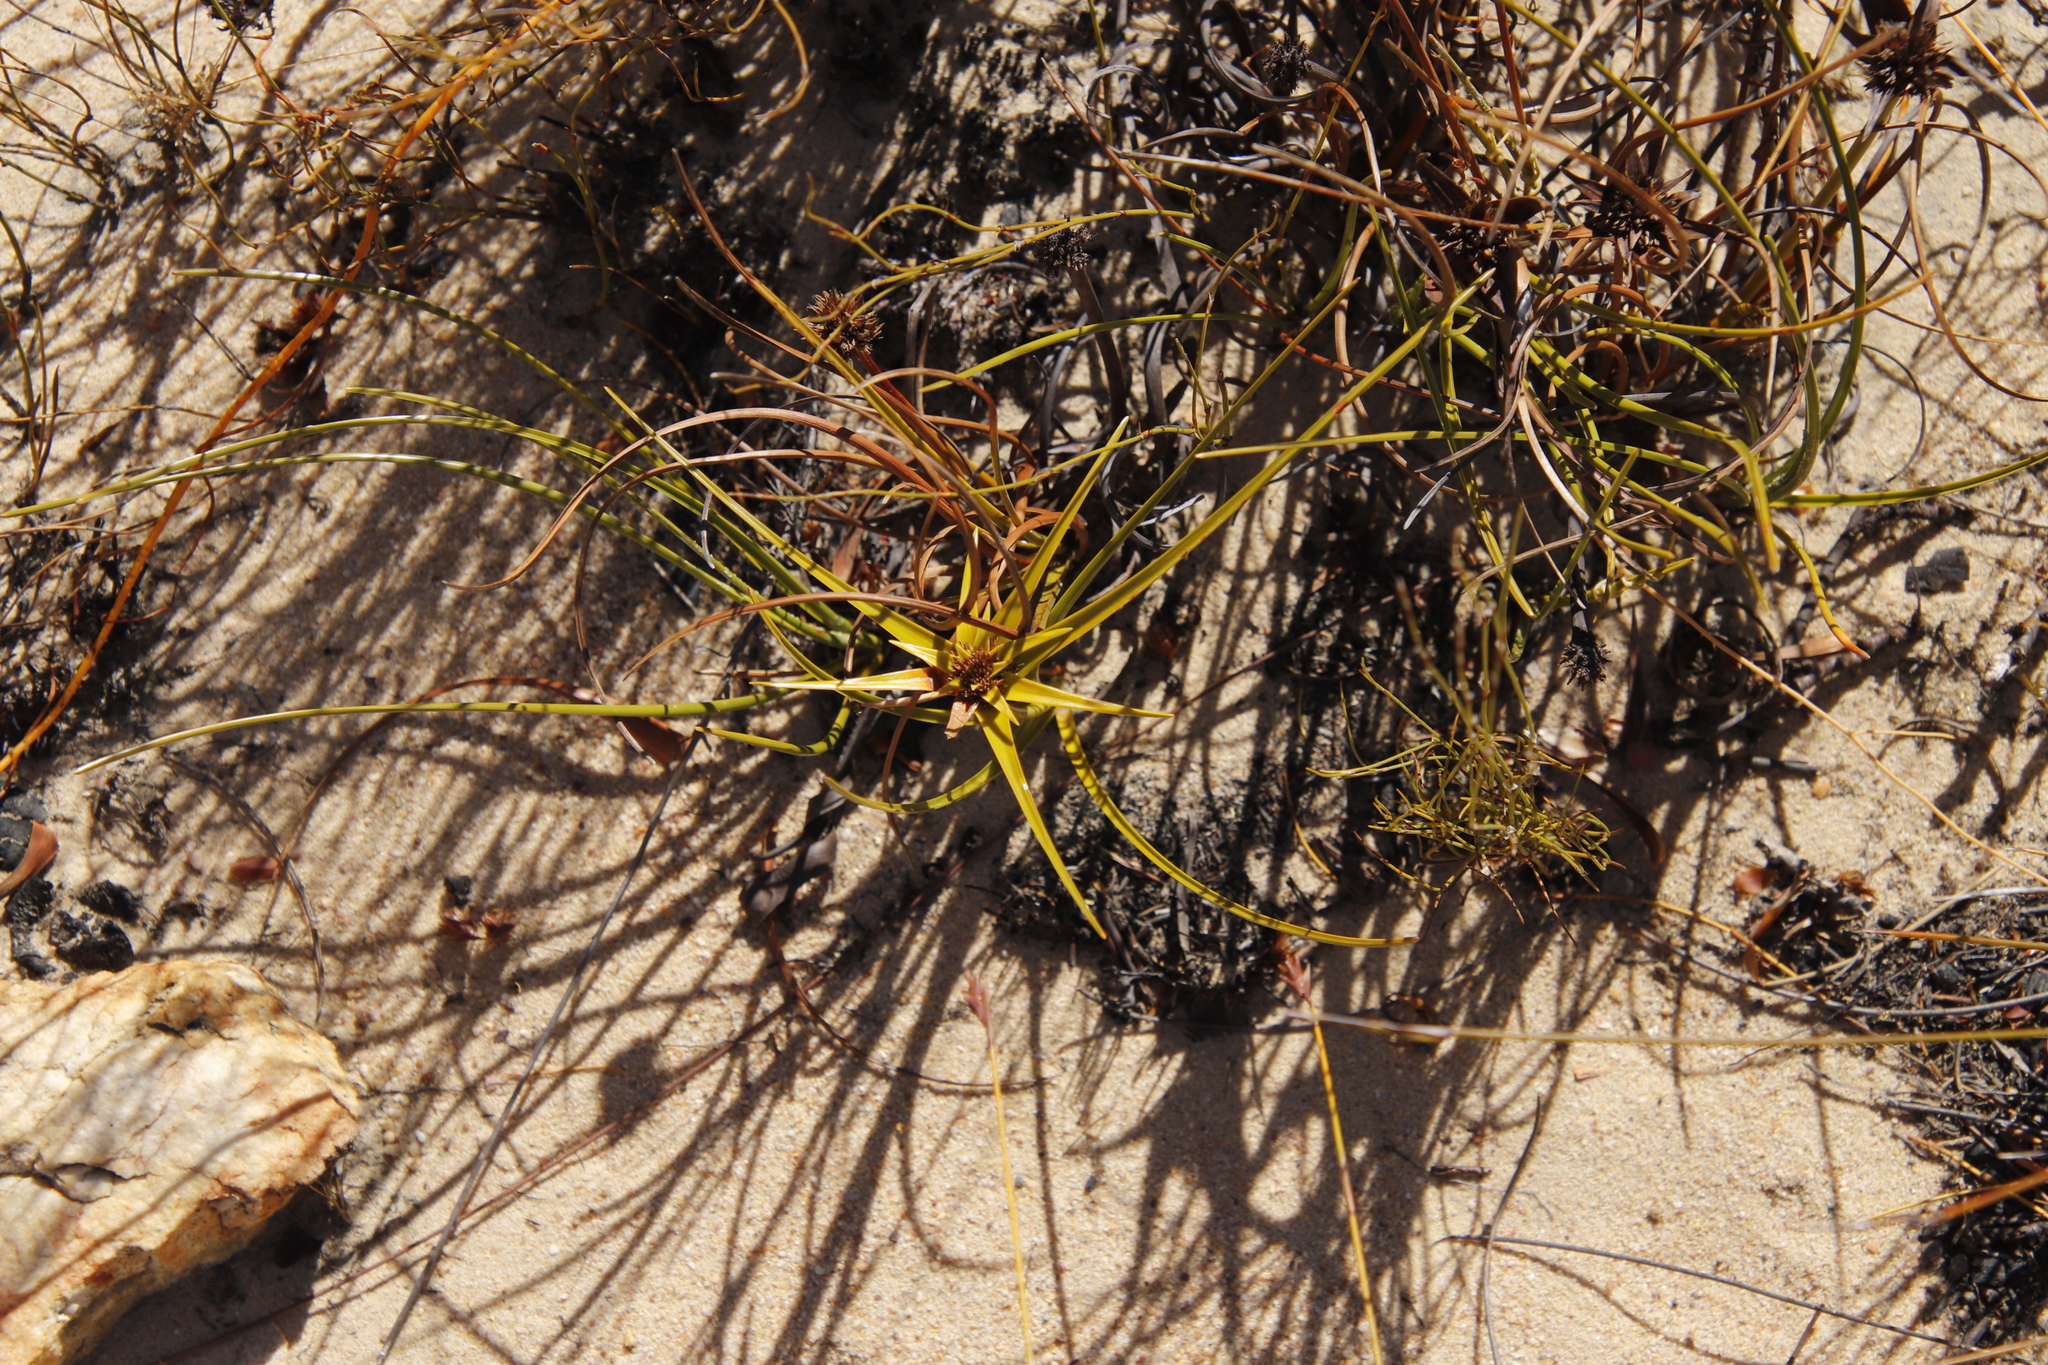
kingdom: Plantae
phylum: Tracheophyta
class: Liliopsida
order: Poales
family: Cyperaceae
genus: Ficinia
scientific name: Ficinia radiata
